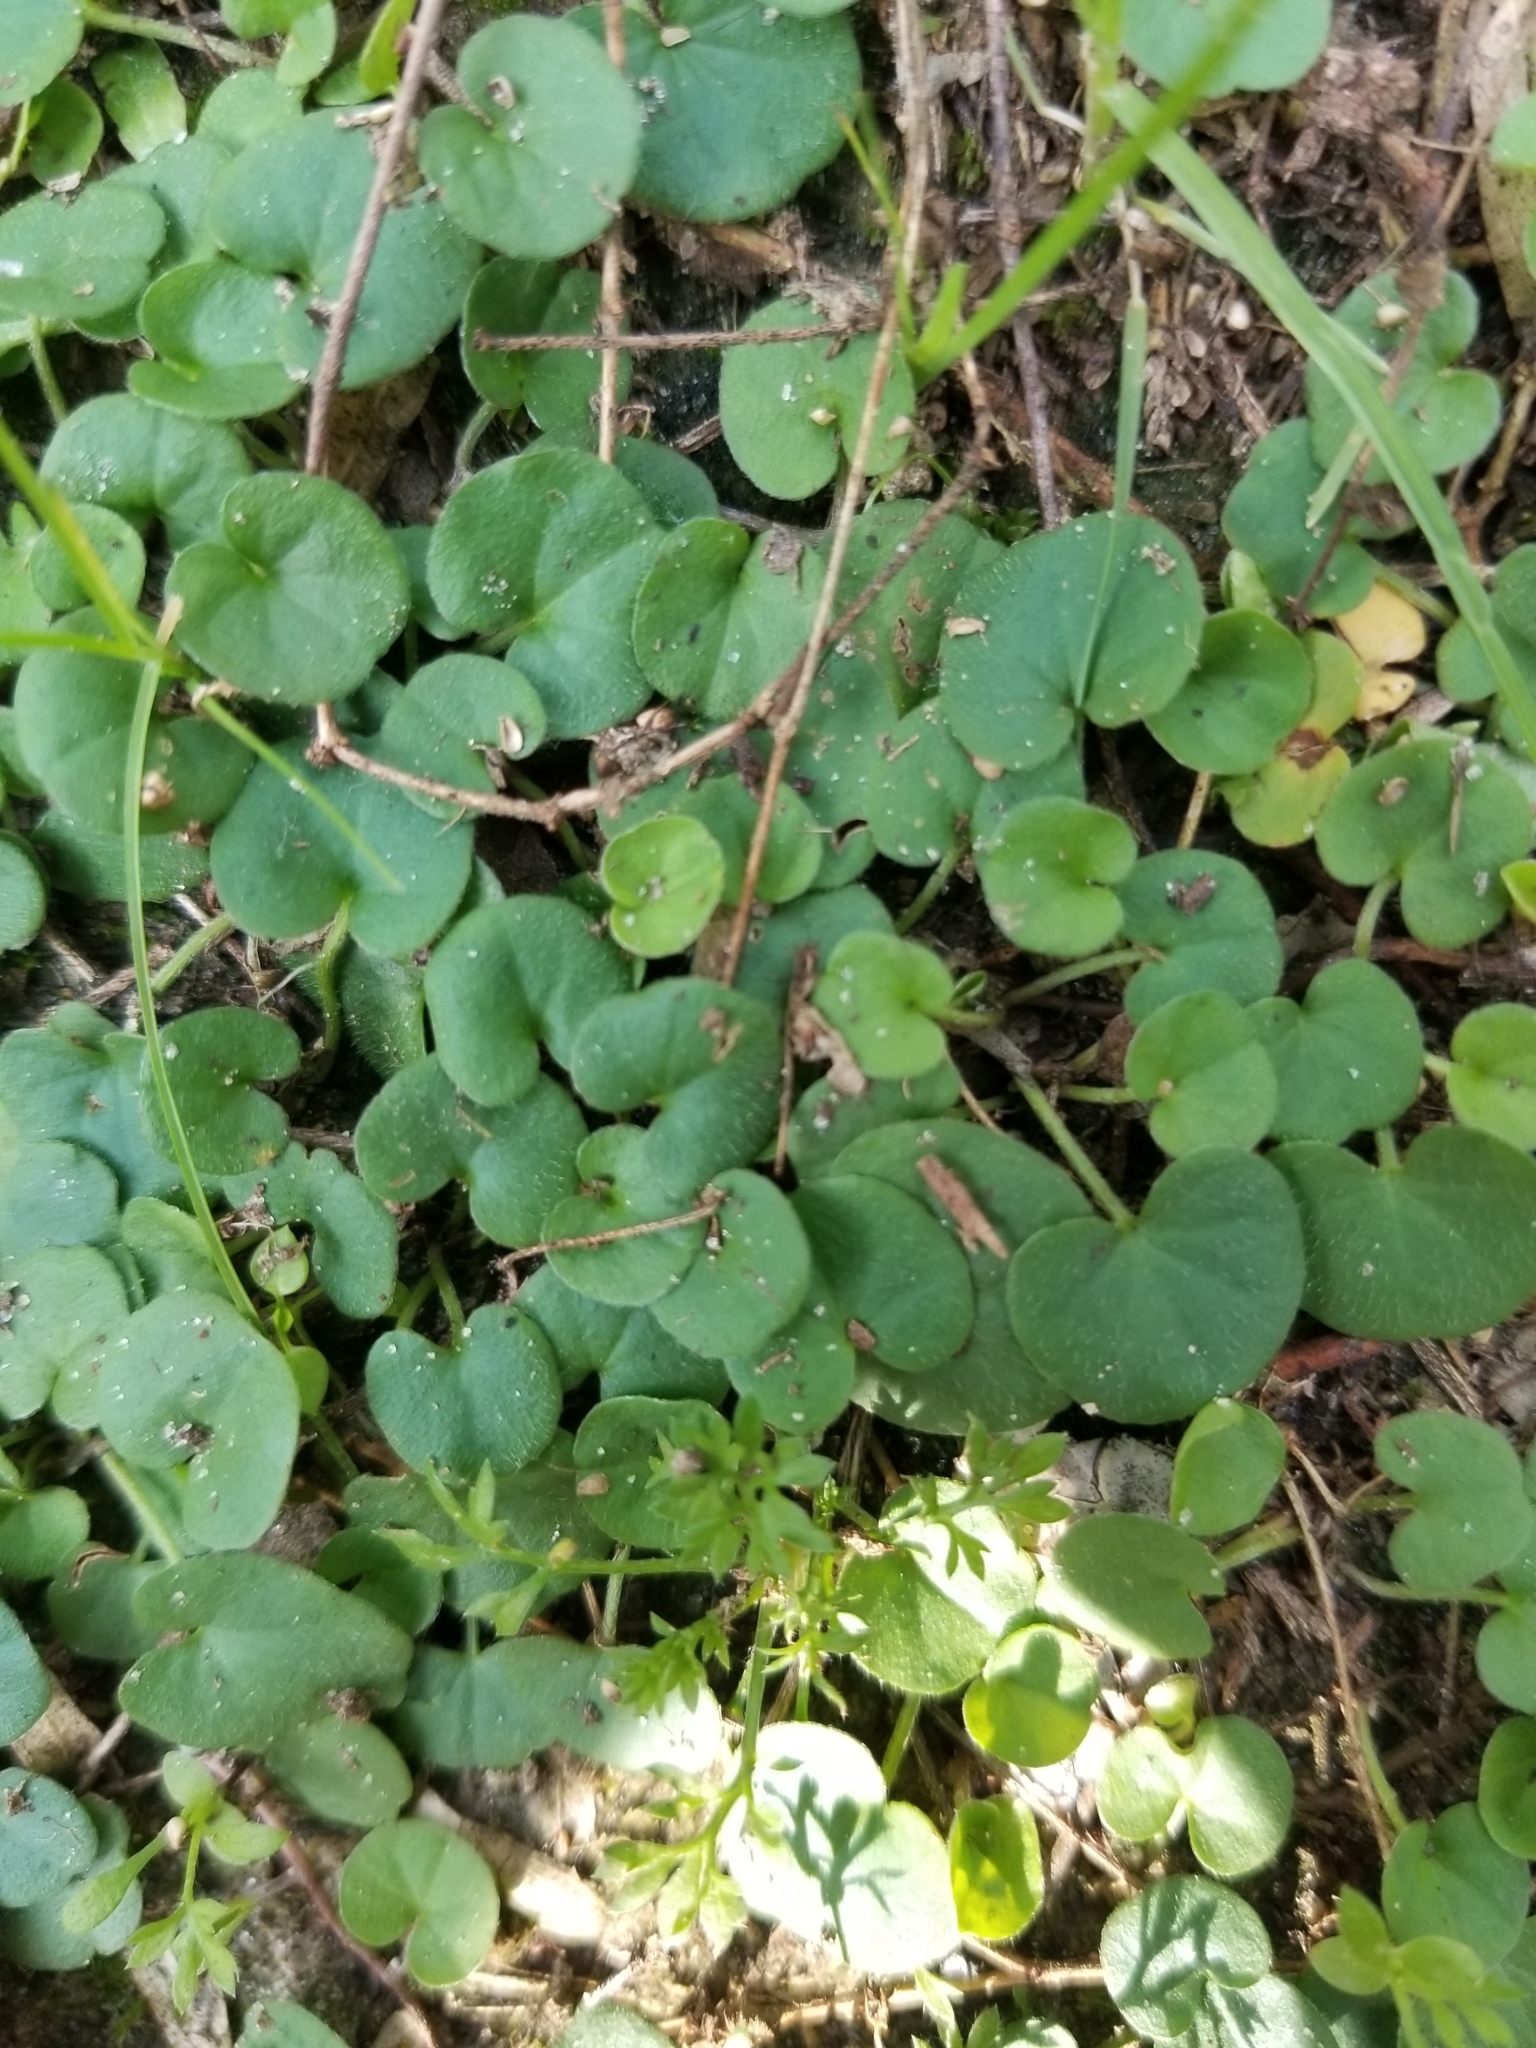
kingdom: Plantae
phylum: Tracheophyta
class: Magnoliopsida
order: Solanales
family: Convolvulaceae
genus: Dichondra
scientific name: Dichondra carolinensis
